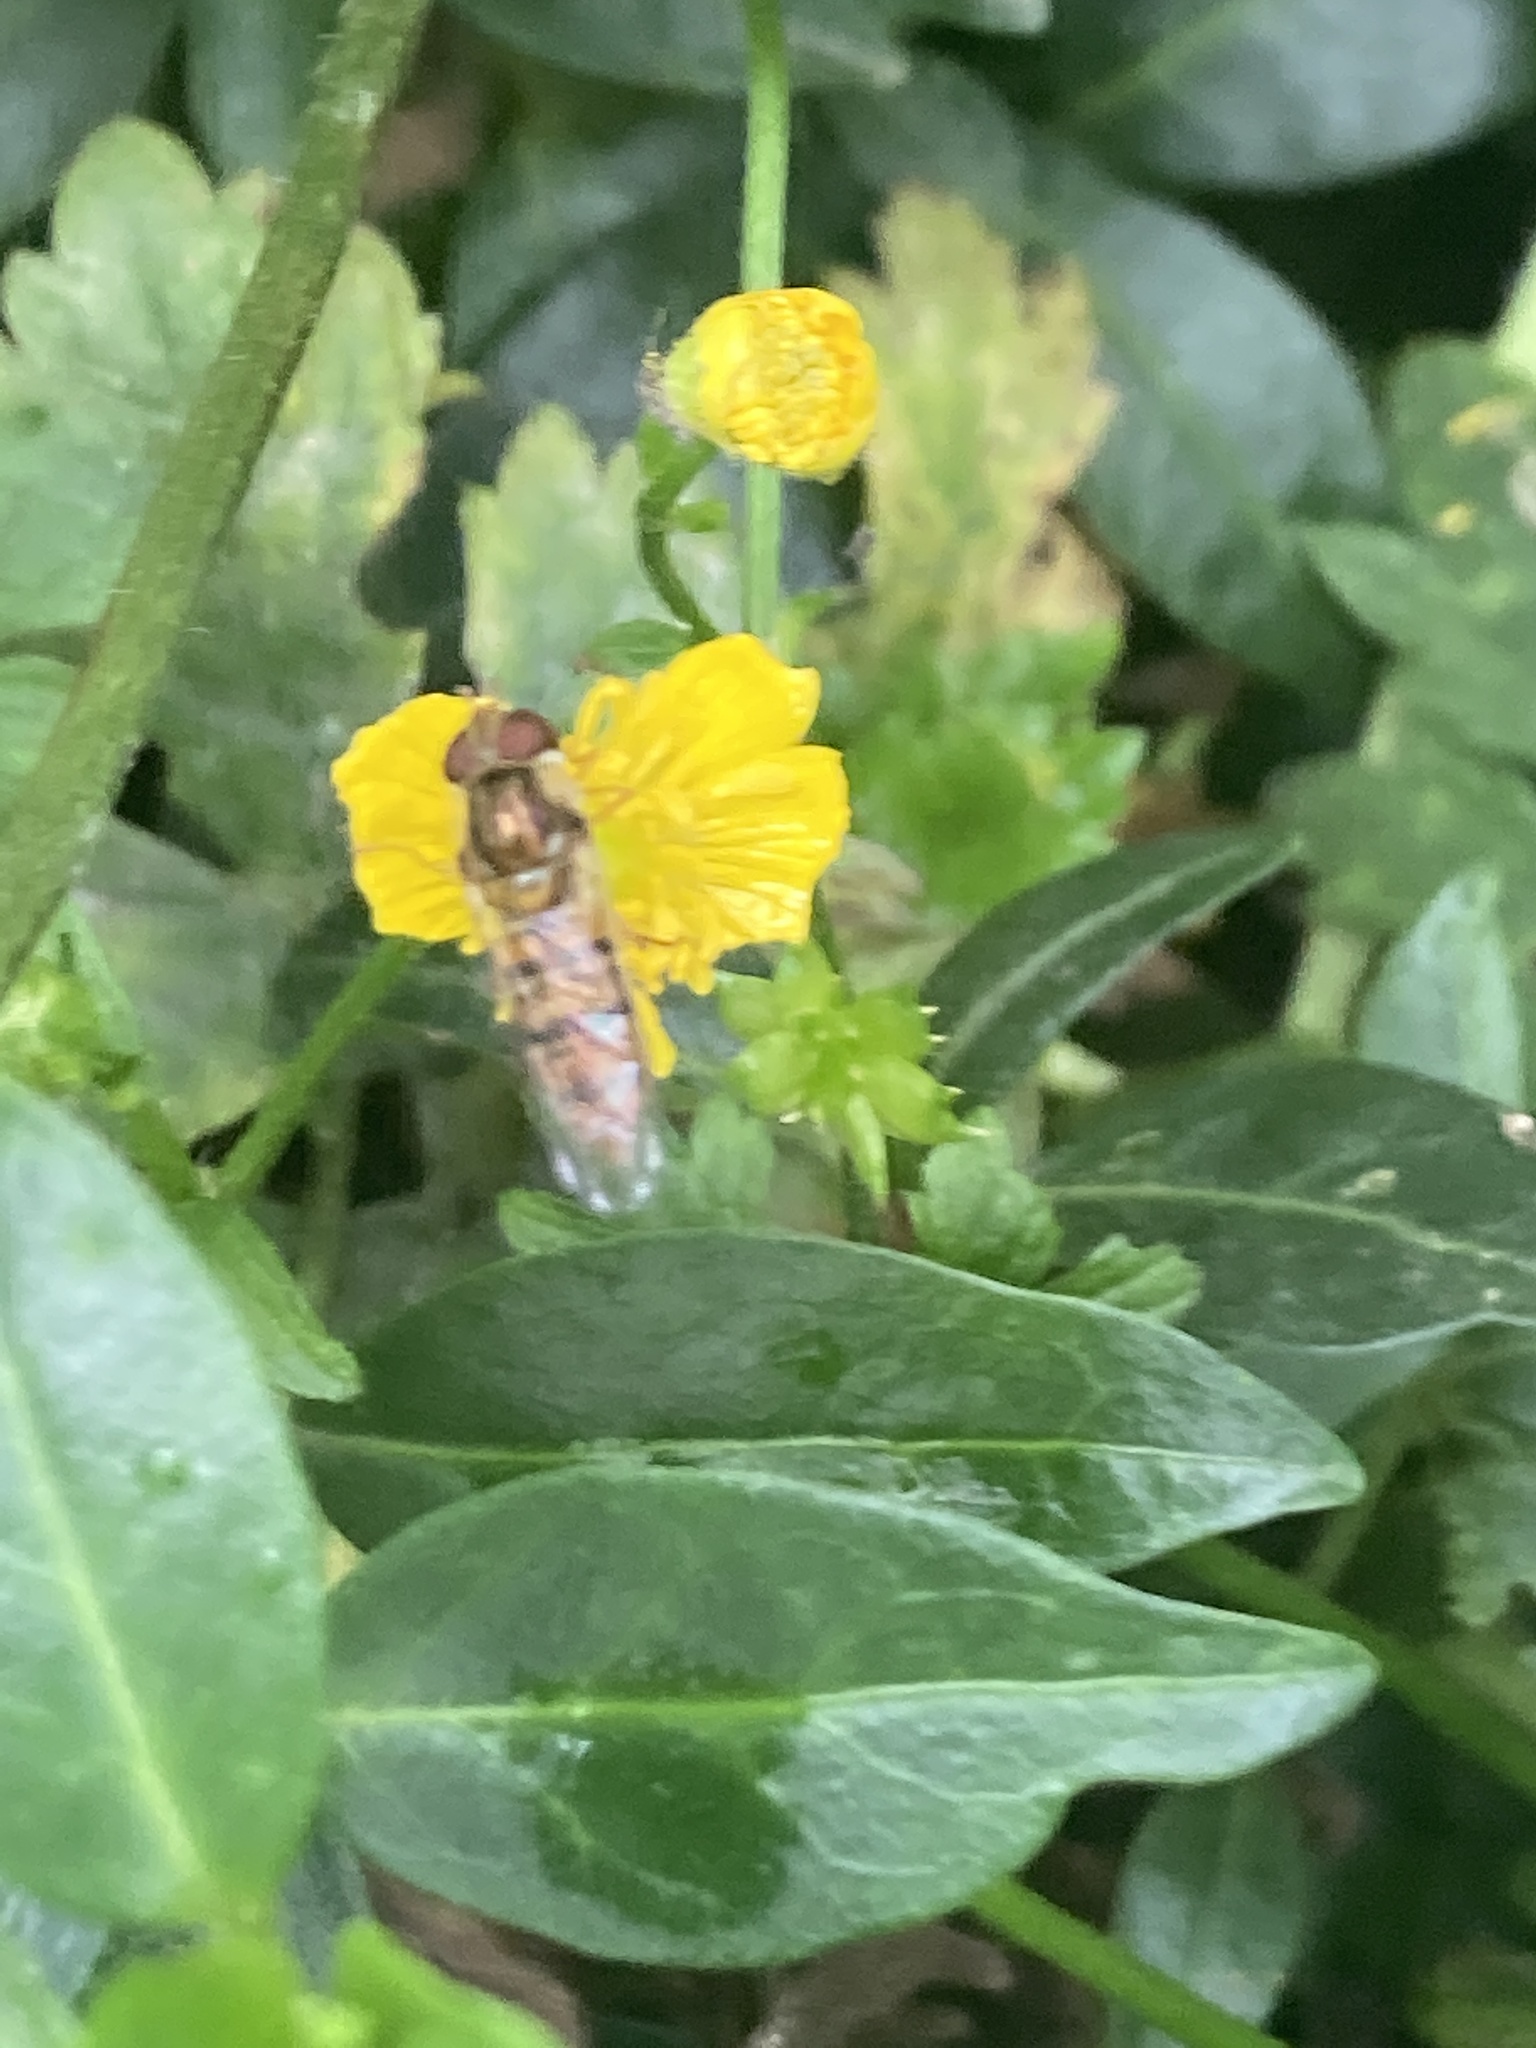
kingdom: Animalia
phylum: Arthropoda
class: Insecta
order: Diptera
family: Syrphidae
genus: Episyrphus
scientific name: Episyrphus balteatus
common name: Marmalade hoverfly
